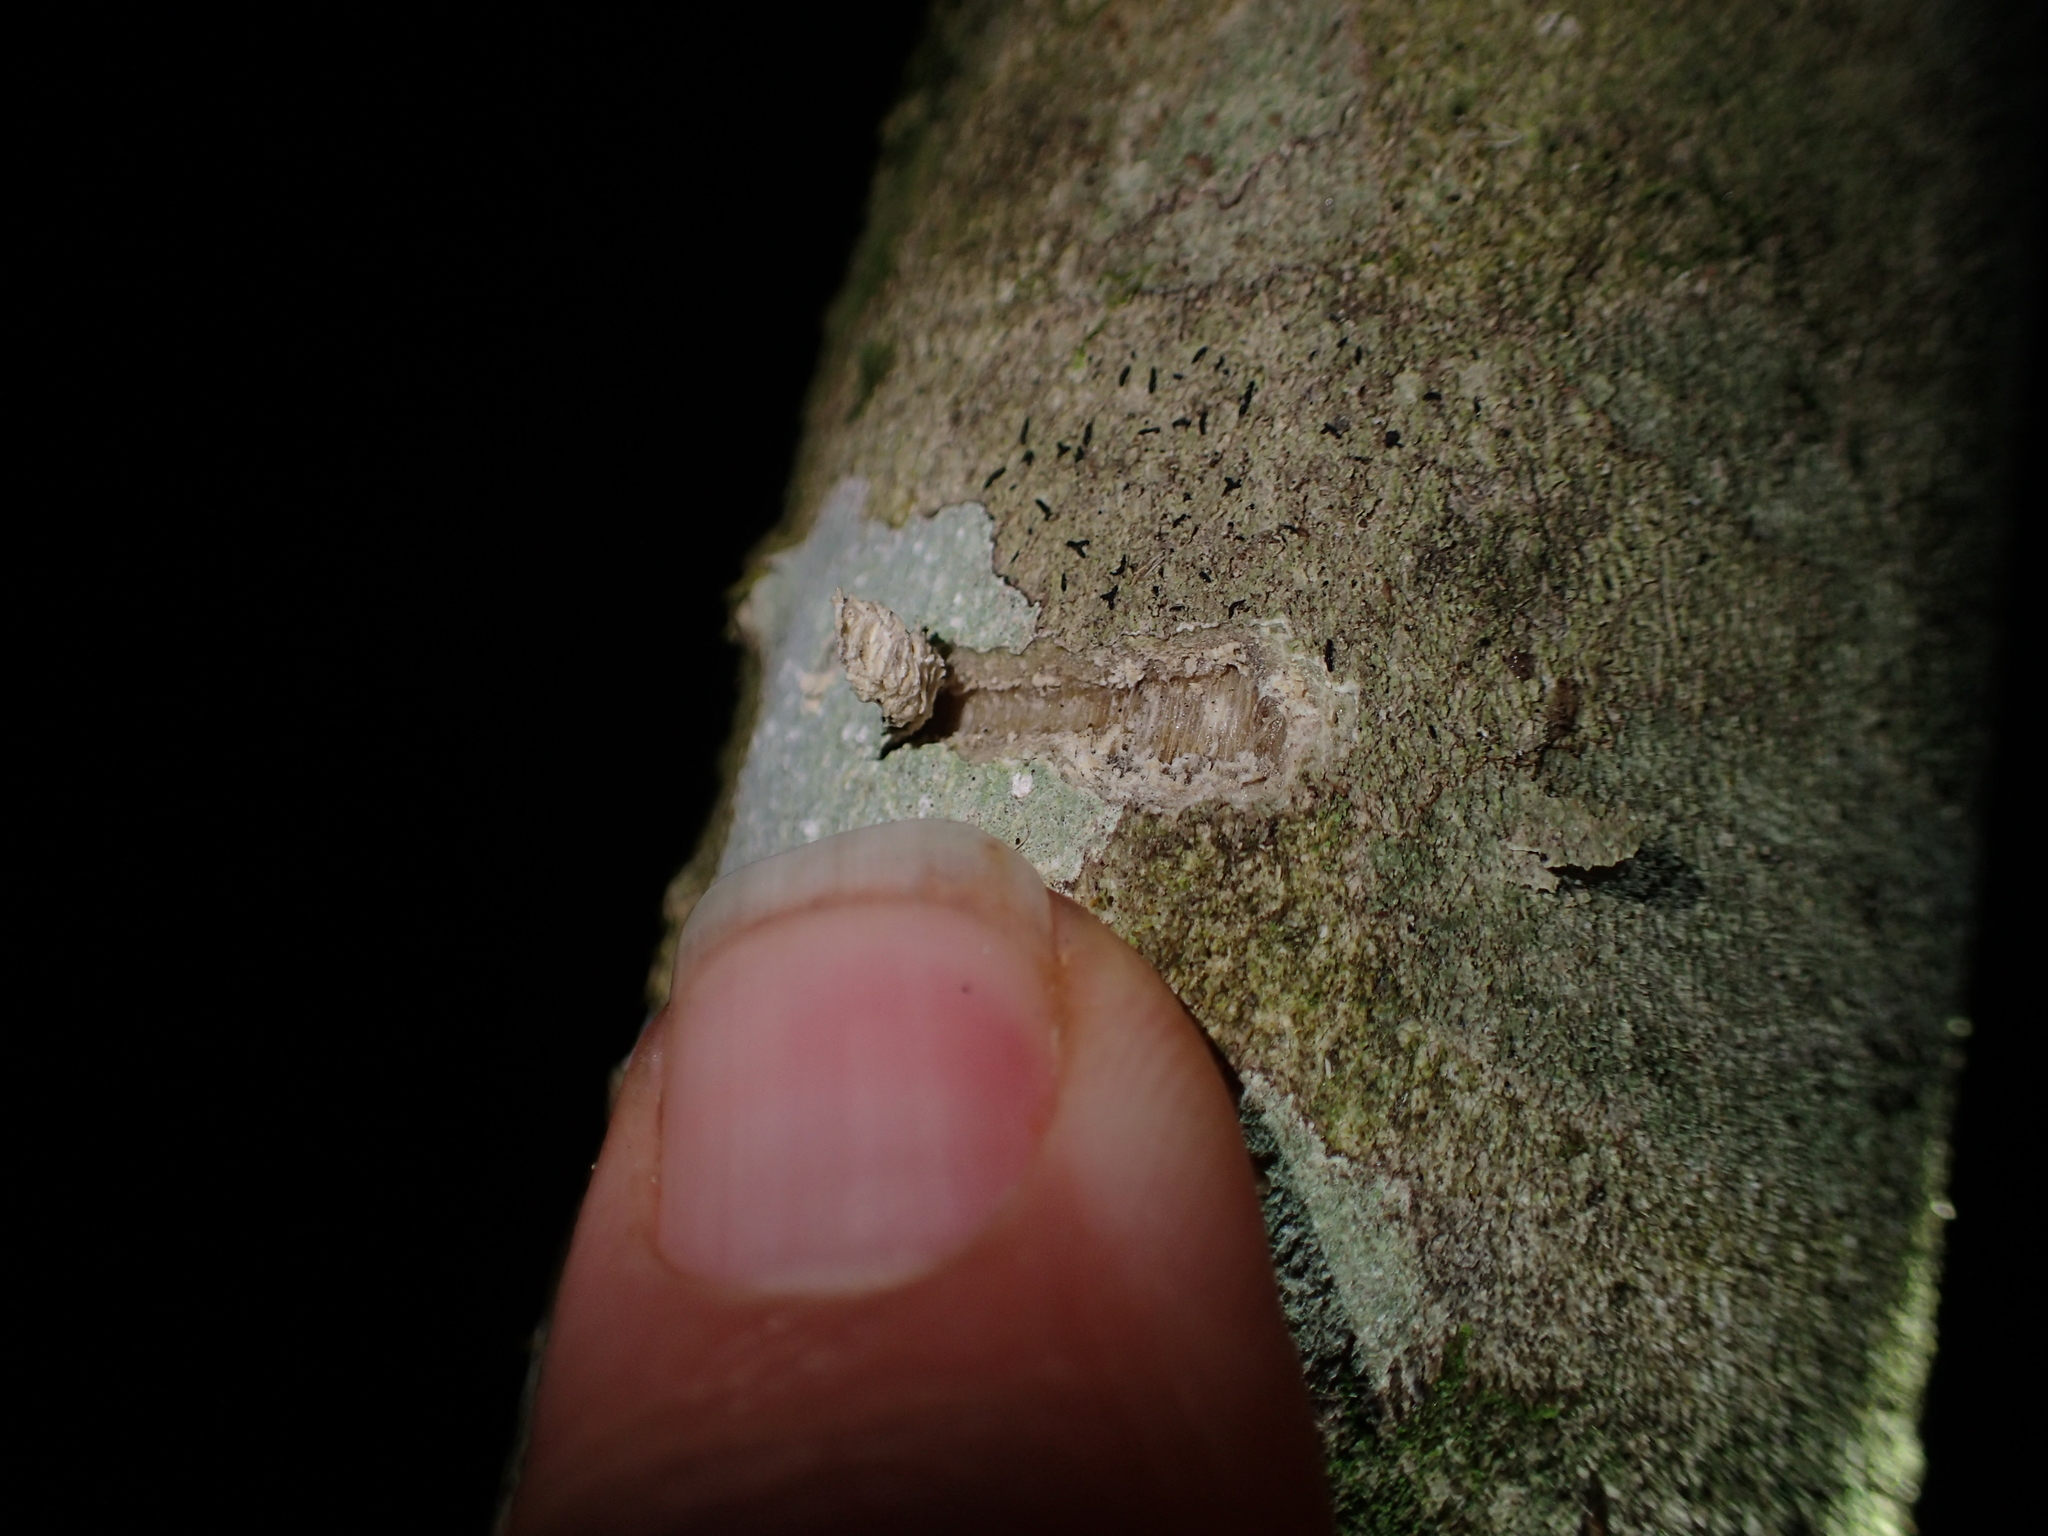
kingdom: Animalia
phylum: Chordata
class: Aves
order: Psittaciformes
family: Psittacidae
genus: Nestor
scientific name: Nestor meridionalis
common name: New zealand kaka
